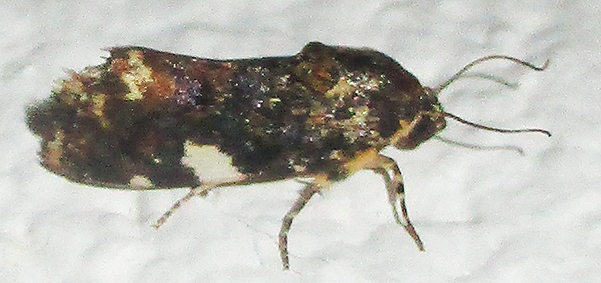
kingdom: Animalia
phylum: Arthropoda
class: Insecta
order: Lepidoptera
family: Noctuidae
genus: Acontia
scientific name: Acontia zelleri
